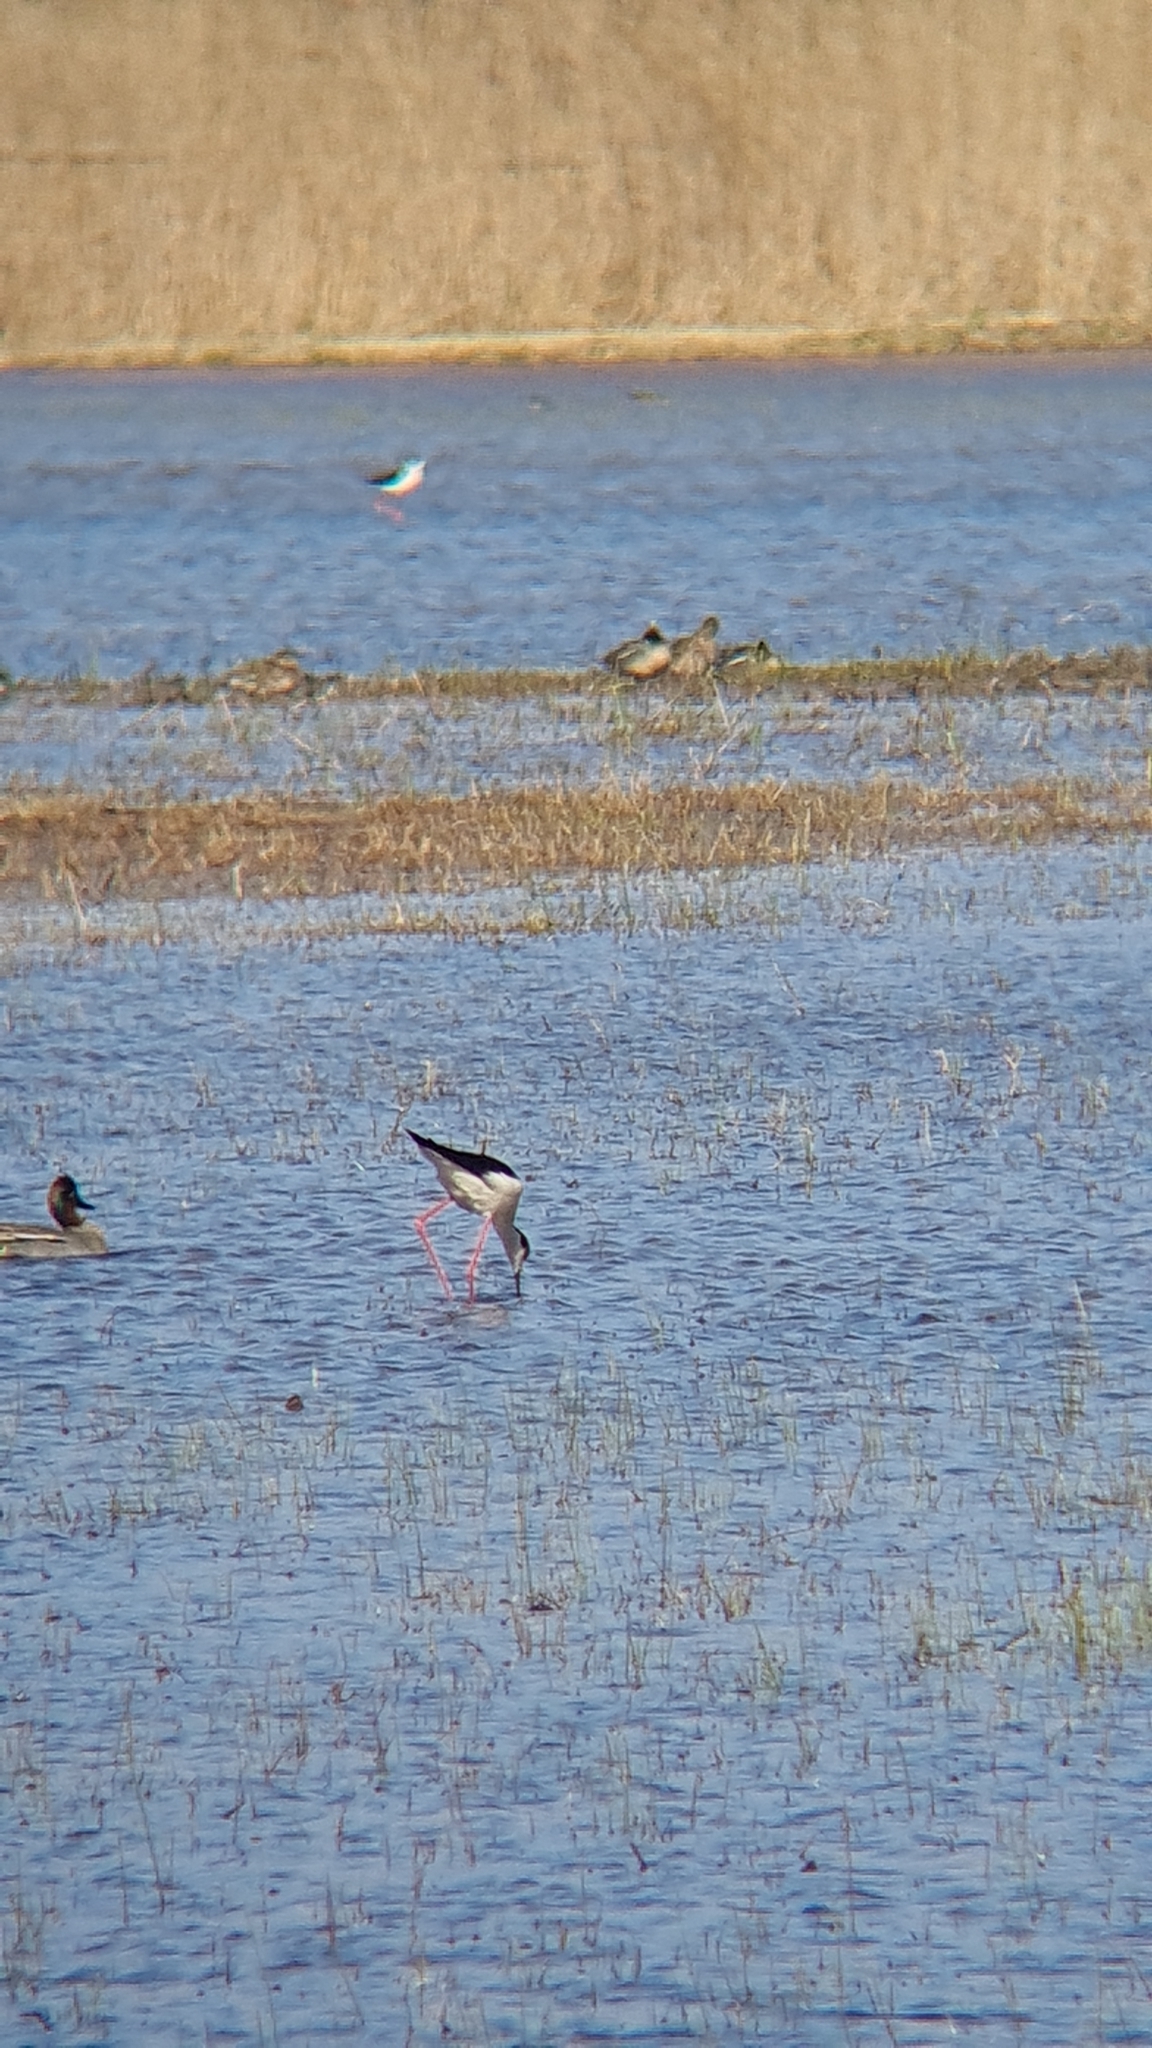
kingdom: Animalia
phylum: Chordata
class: Aves
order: Charadriiformes
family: Recurvirostridae
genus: Himantopus
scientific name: Himantopus himantopus
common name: Black-winged stilt
